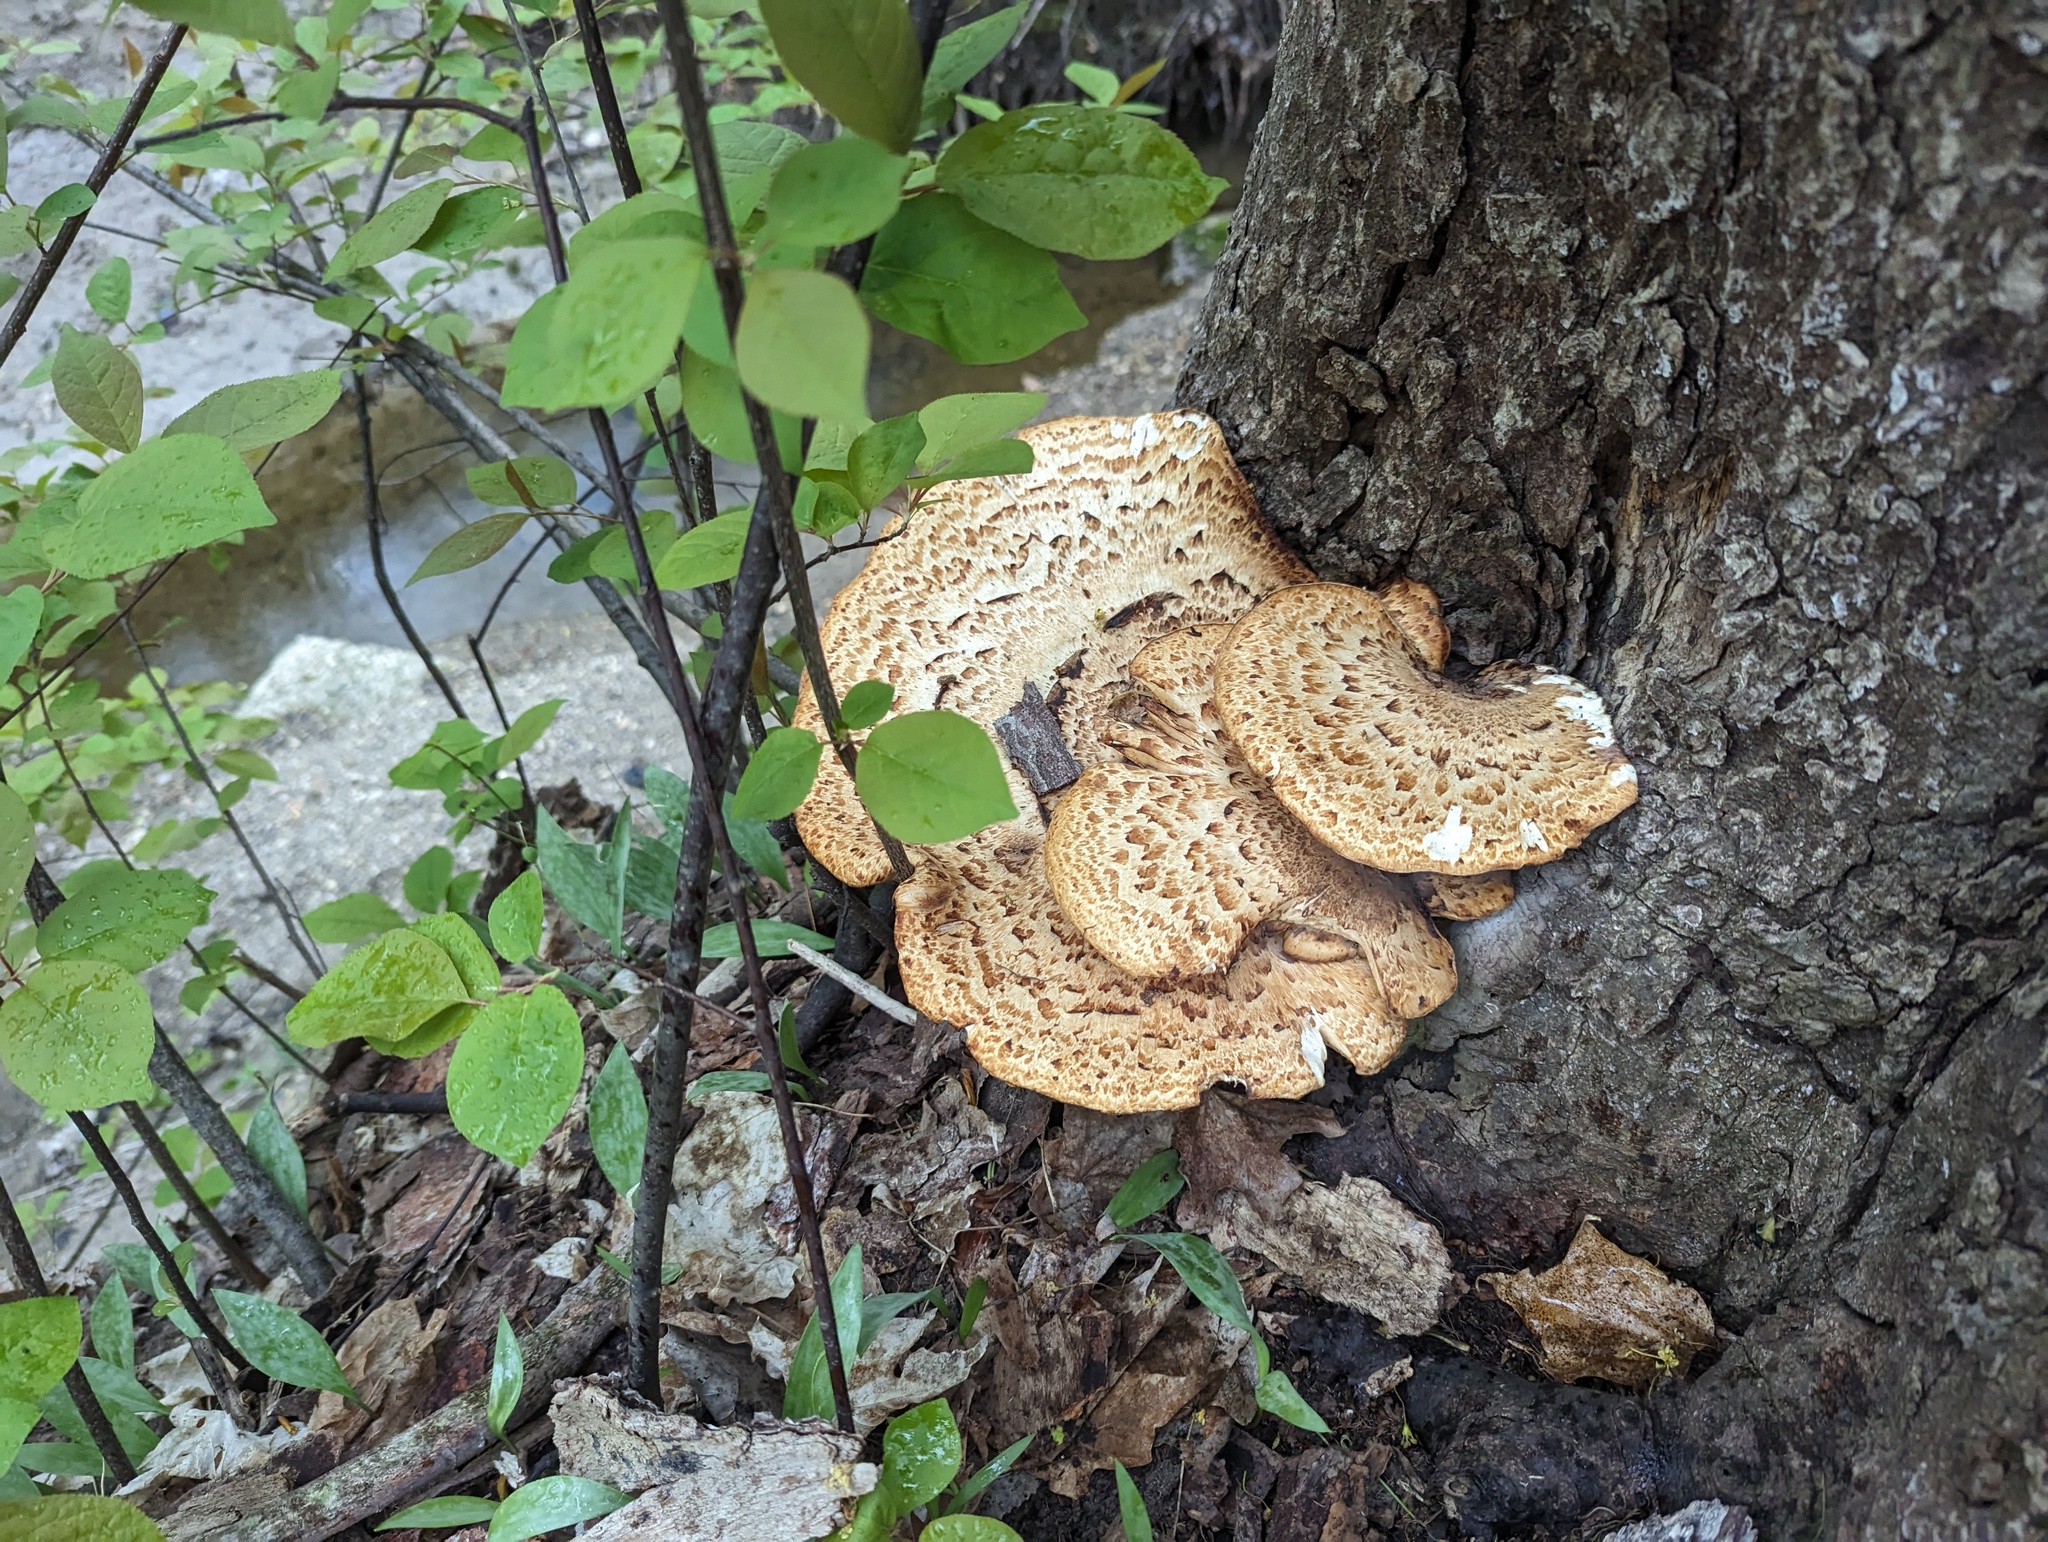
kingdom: Fungi
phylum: Basidiomycota
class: Agaricomycetes
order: Polyporales
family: Polyporaceae
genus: Cerioporus
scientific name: Cerioporus squamosus
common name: Dryad's saddle
